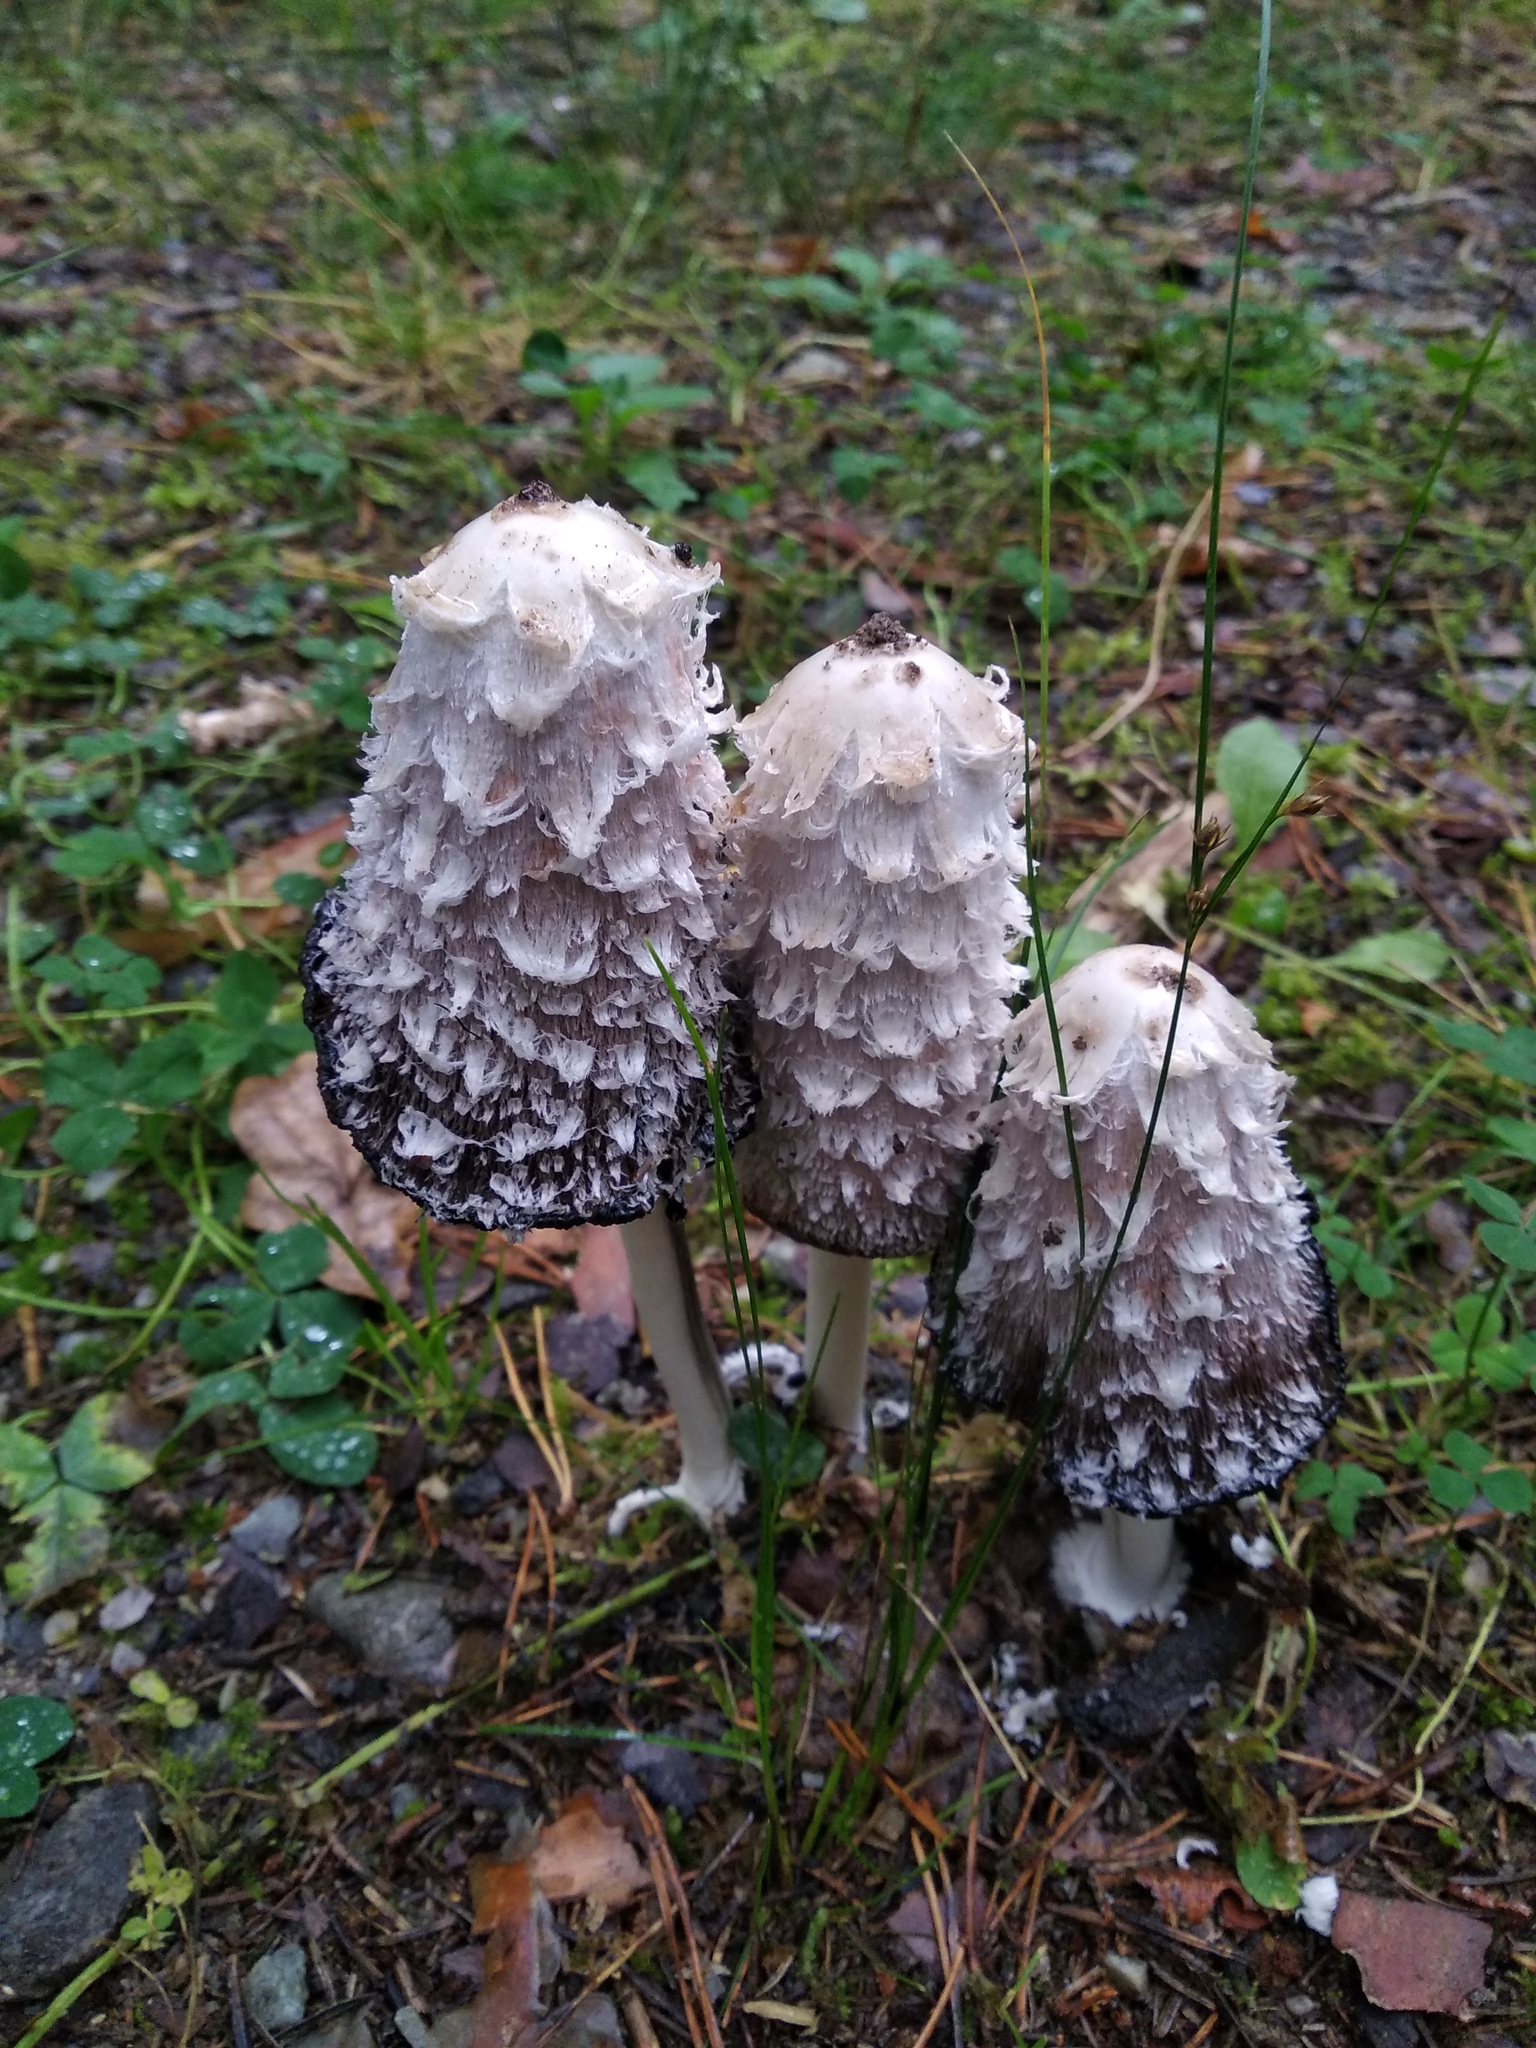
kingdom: Fungi
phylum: Basidiomycota
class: Agaricomycetes
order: Agaricales
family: Agaricaceae
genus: Coprinus
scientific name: Coprinus comatus
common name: Lawyer's wig
